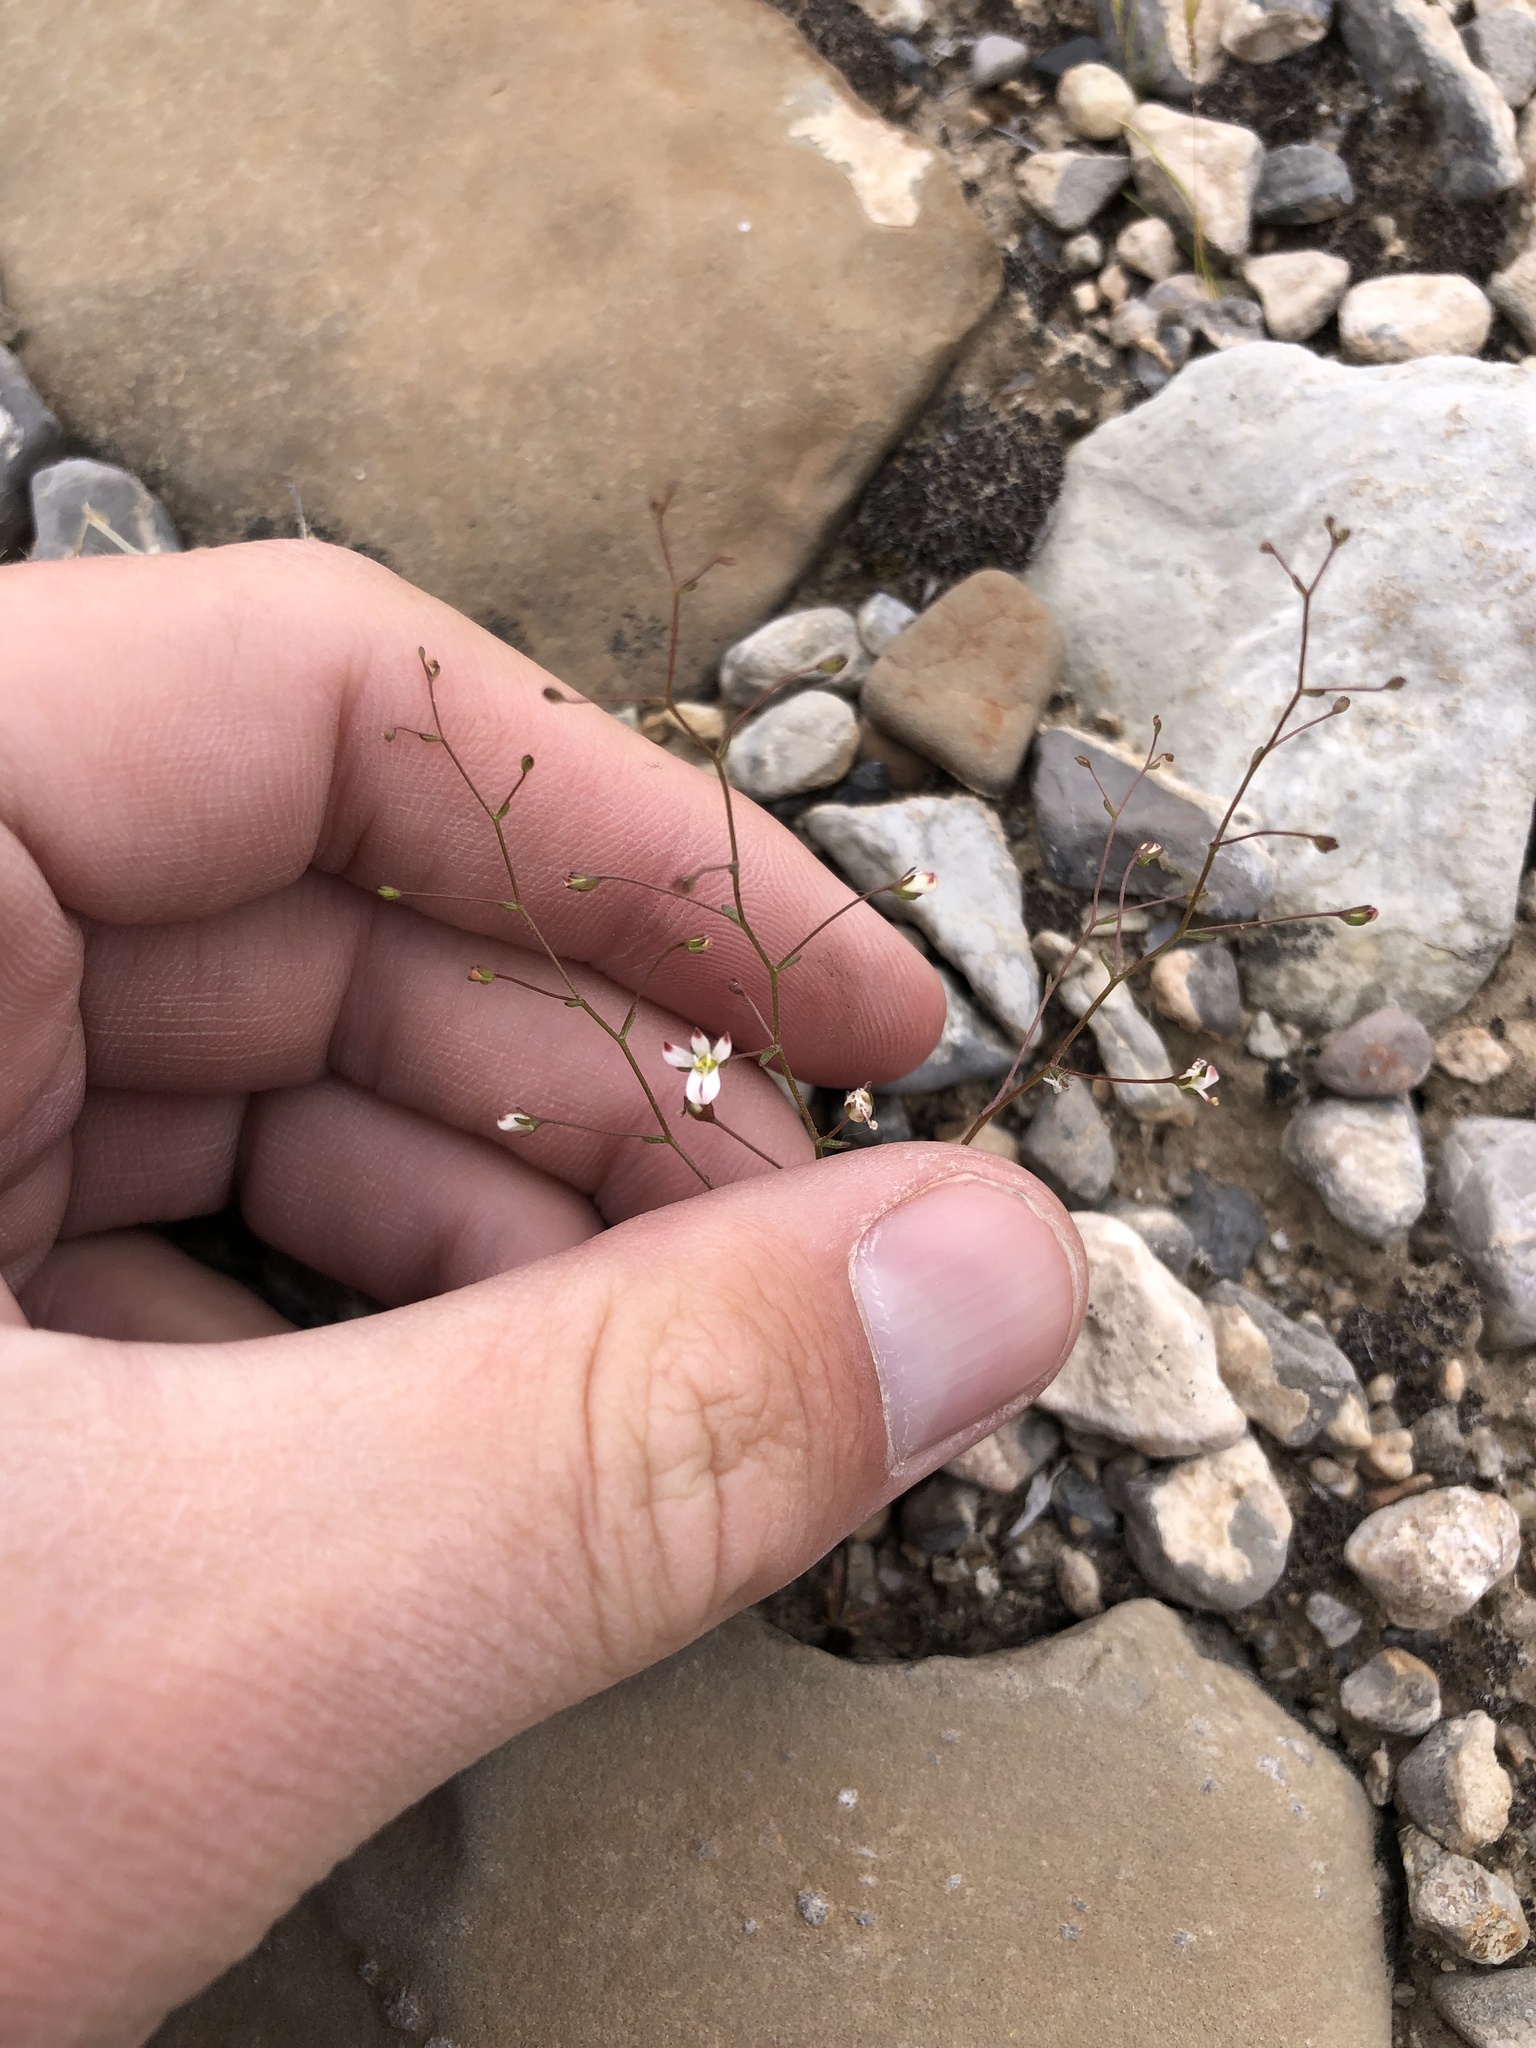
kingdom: Plantae
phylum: Tracheophyta
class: Magnoliopsida
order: Asterales
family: Campanulaceae
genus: Nemacladus
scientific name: Nemacladus orientalis
